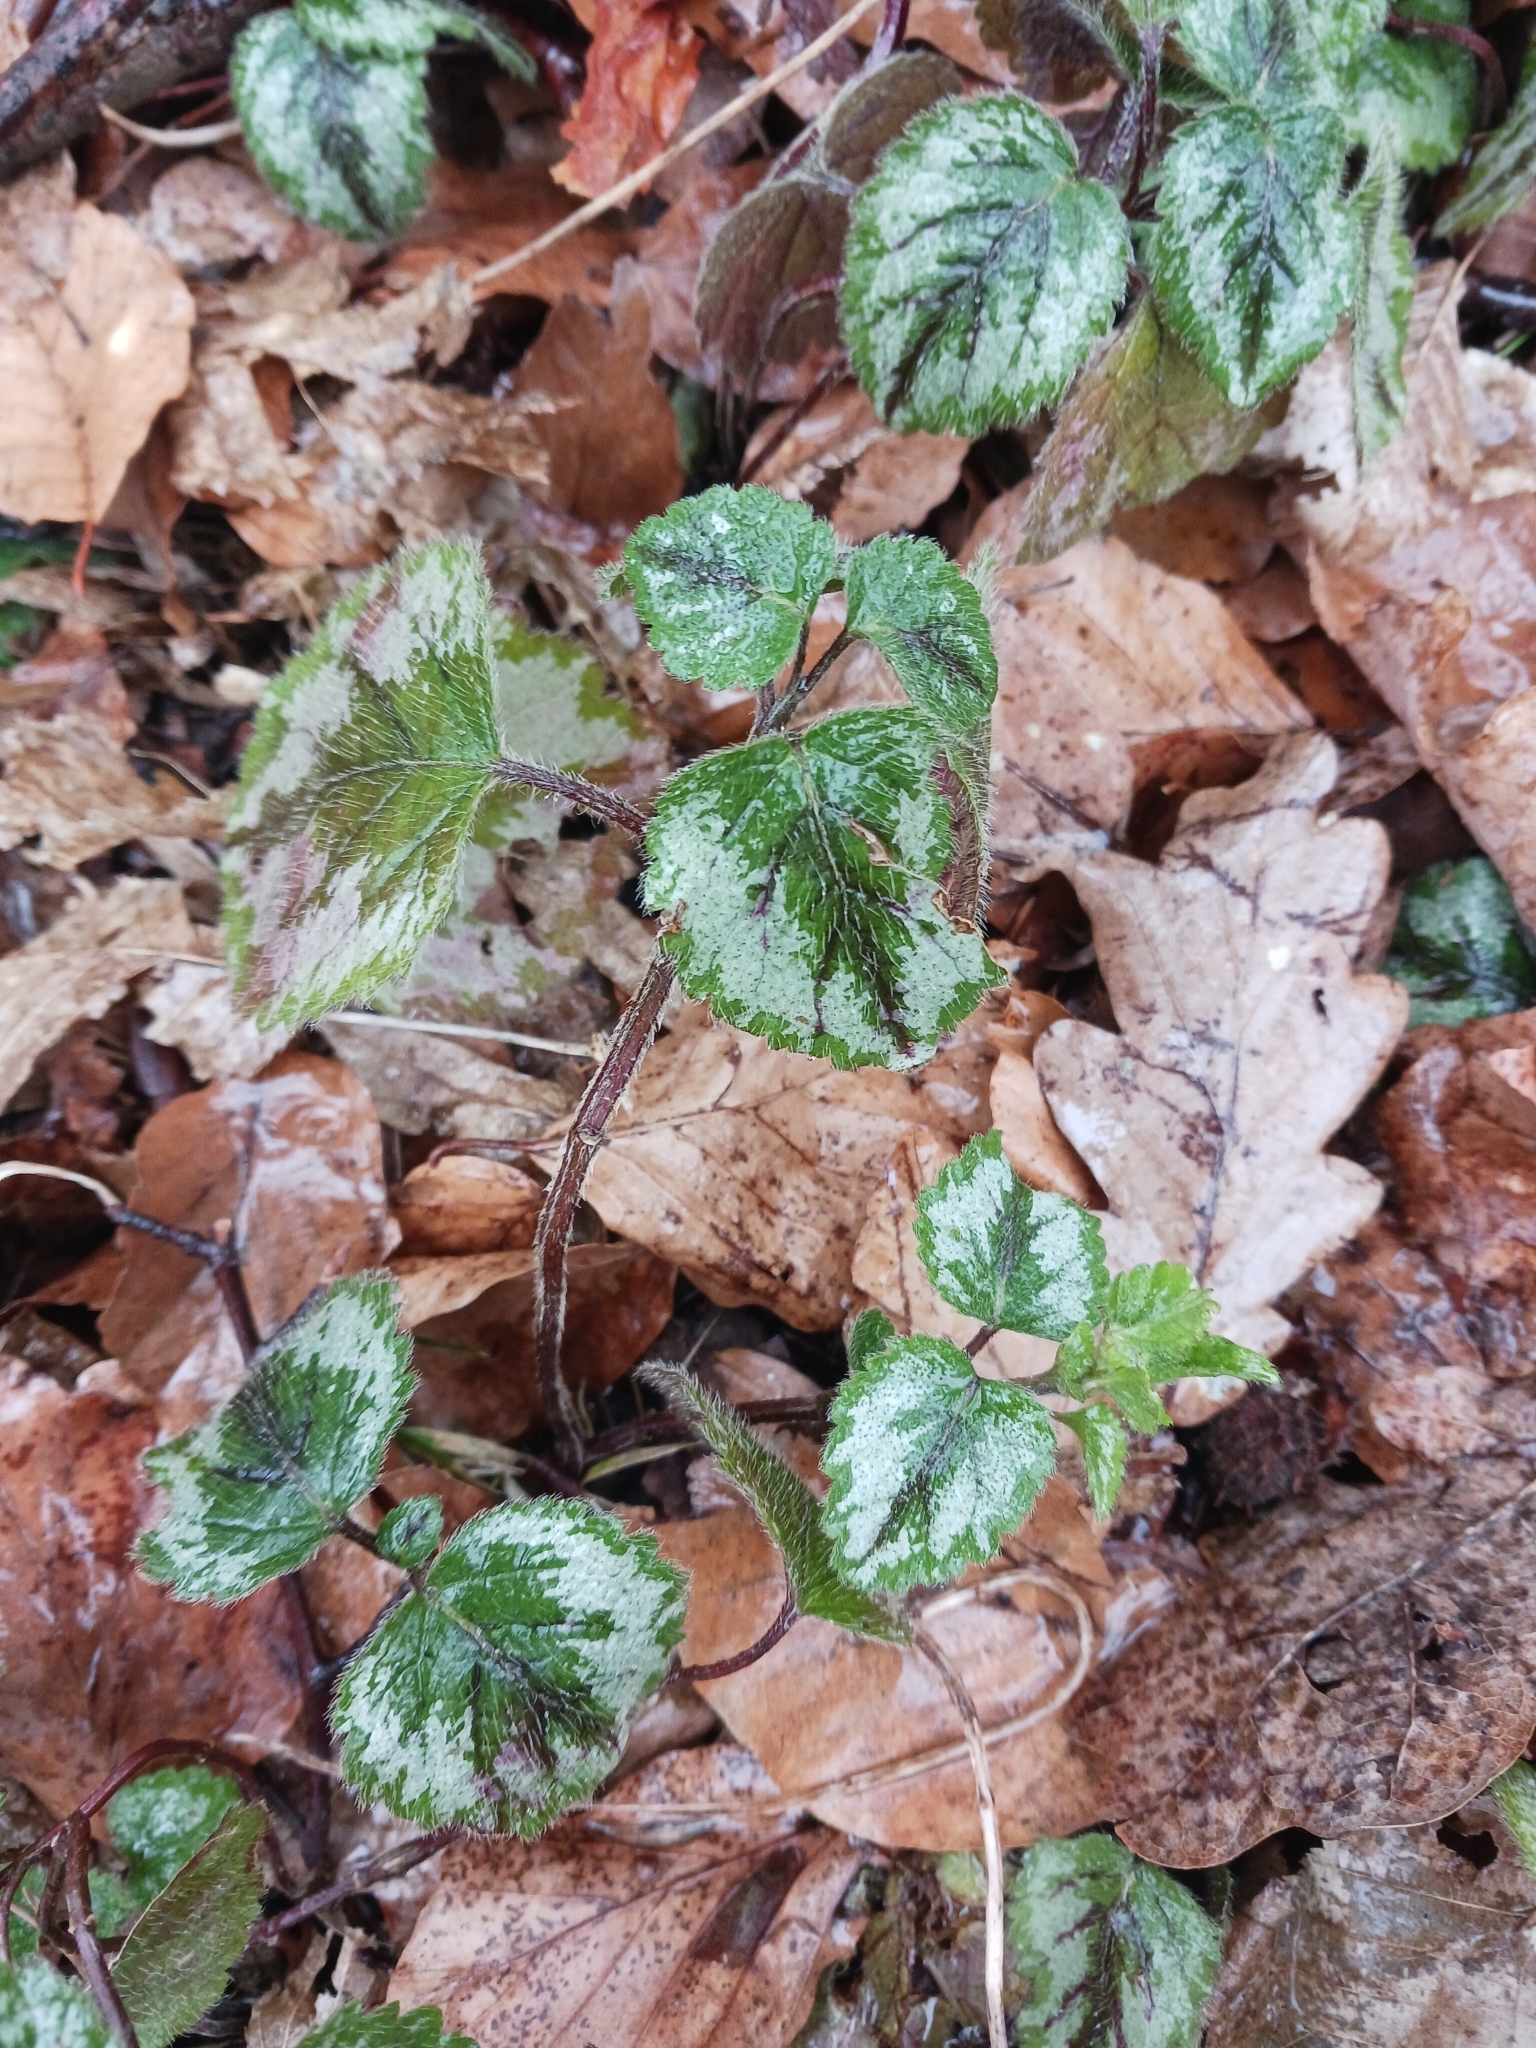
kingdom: Plantae
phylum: Tracheophyta
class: Magnoliopsida
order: Lamiales
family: Lamiaceae
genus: Lamium
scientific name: Lamium galeobdolon
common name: Yellow archangel
